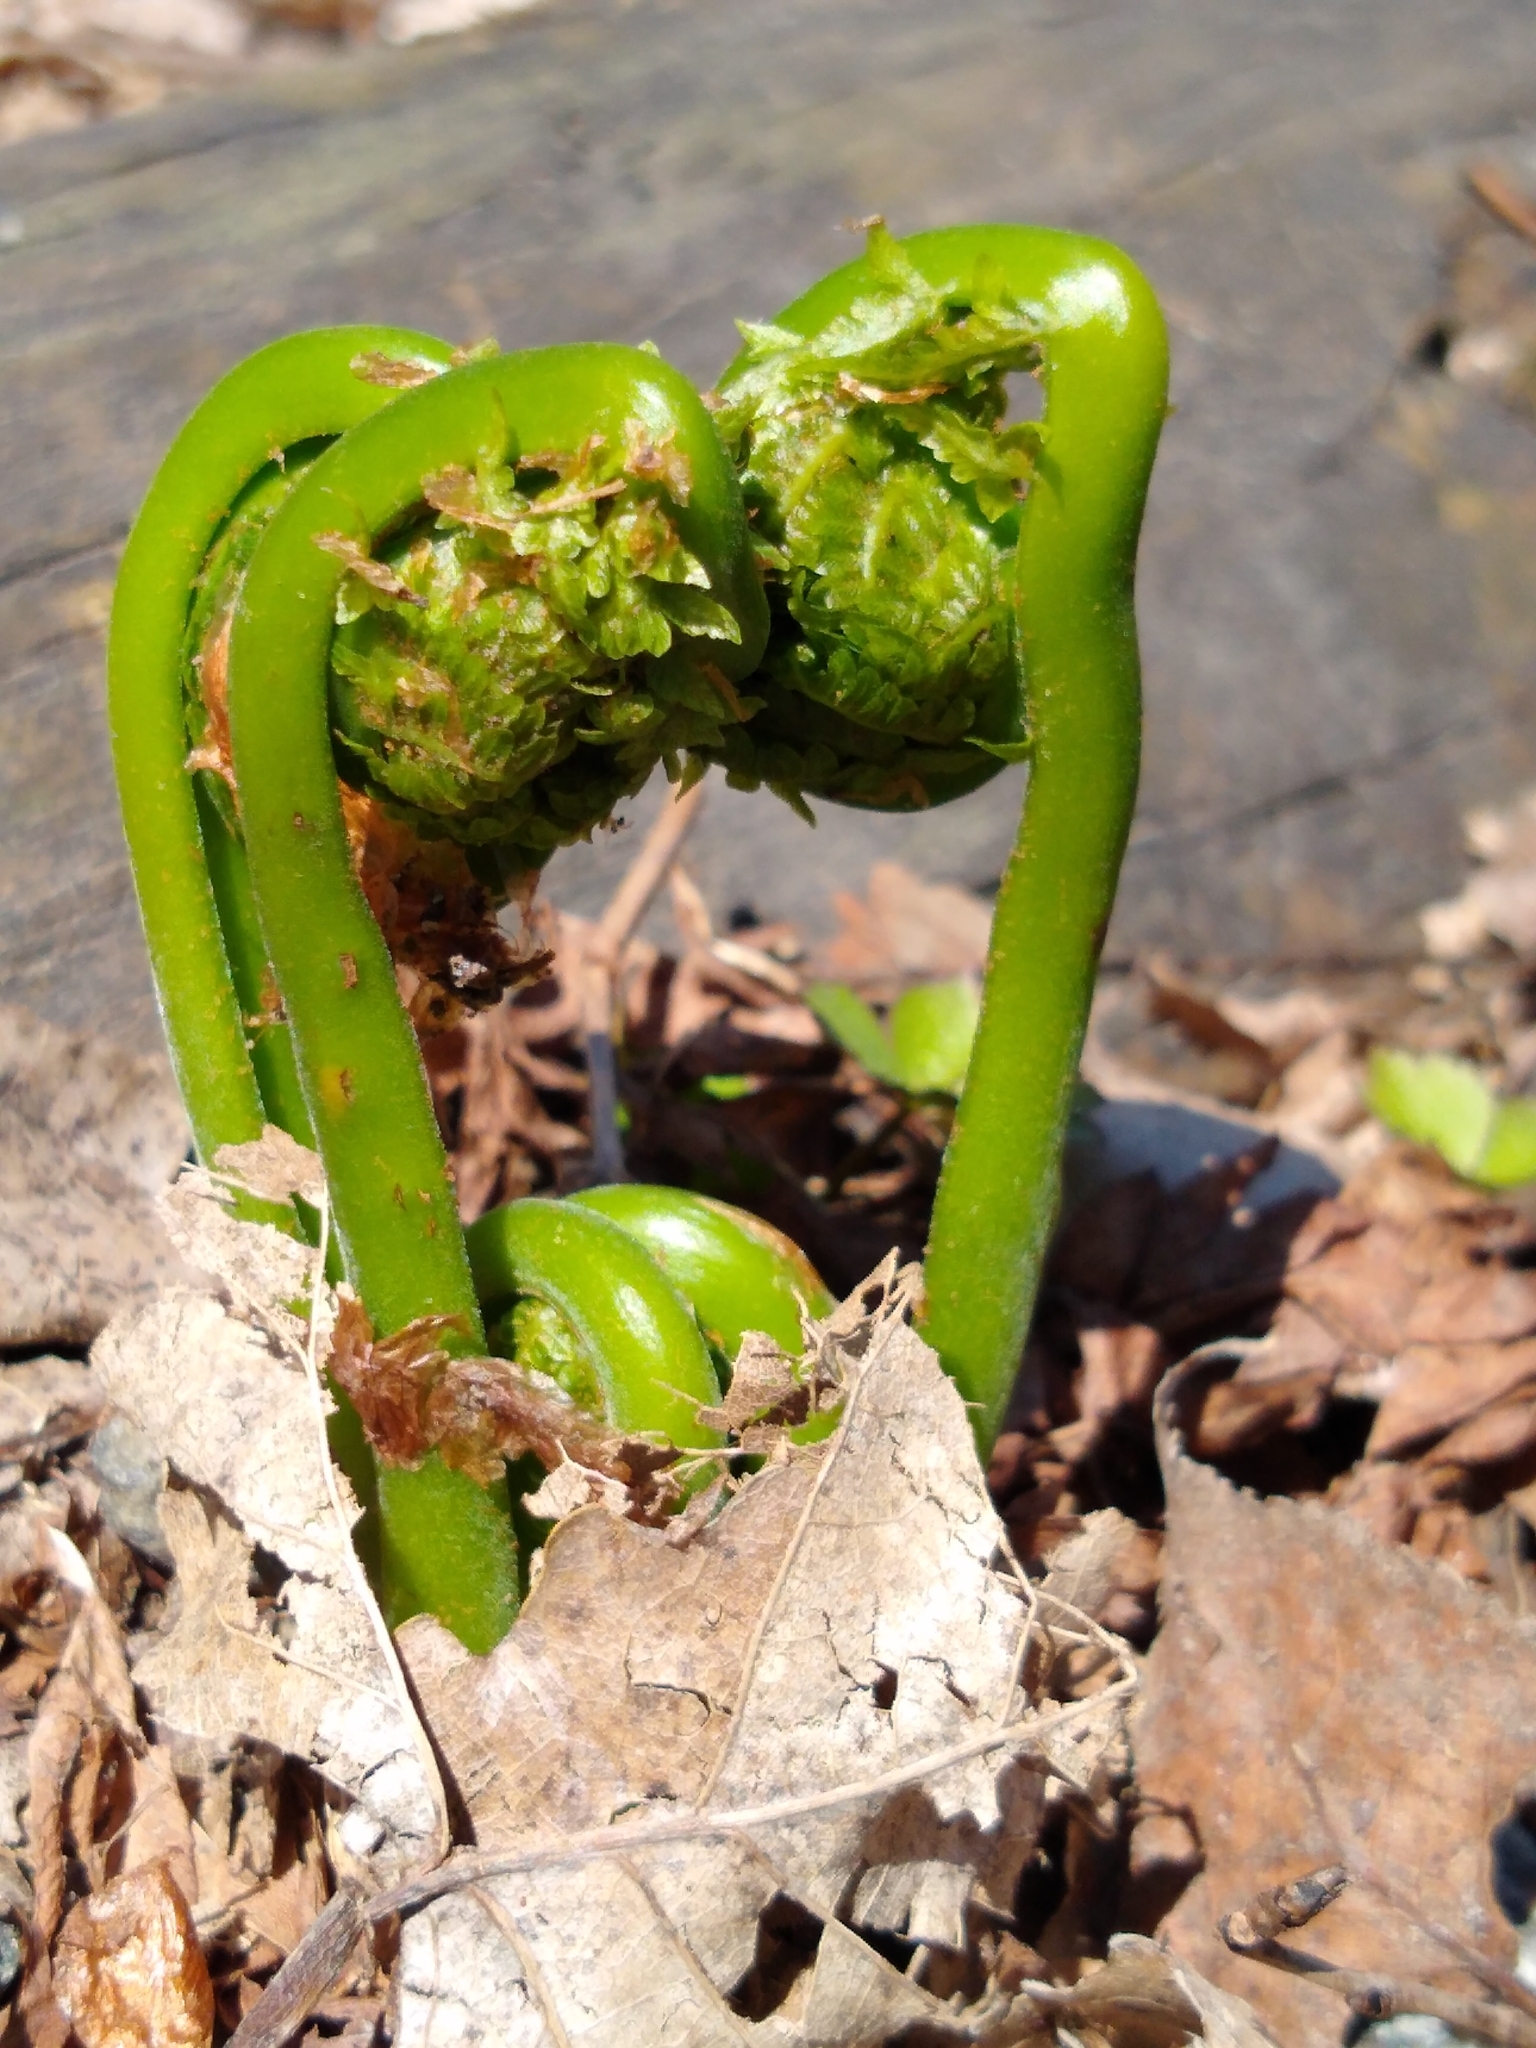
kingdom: Plantae
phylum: Tracheophyta
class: Polypodiopsida
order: Polypodiales
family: Onocleaceae
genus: Matteuccia
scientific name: Matteuccia struthiopteris
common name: Ostrich fern
